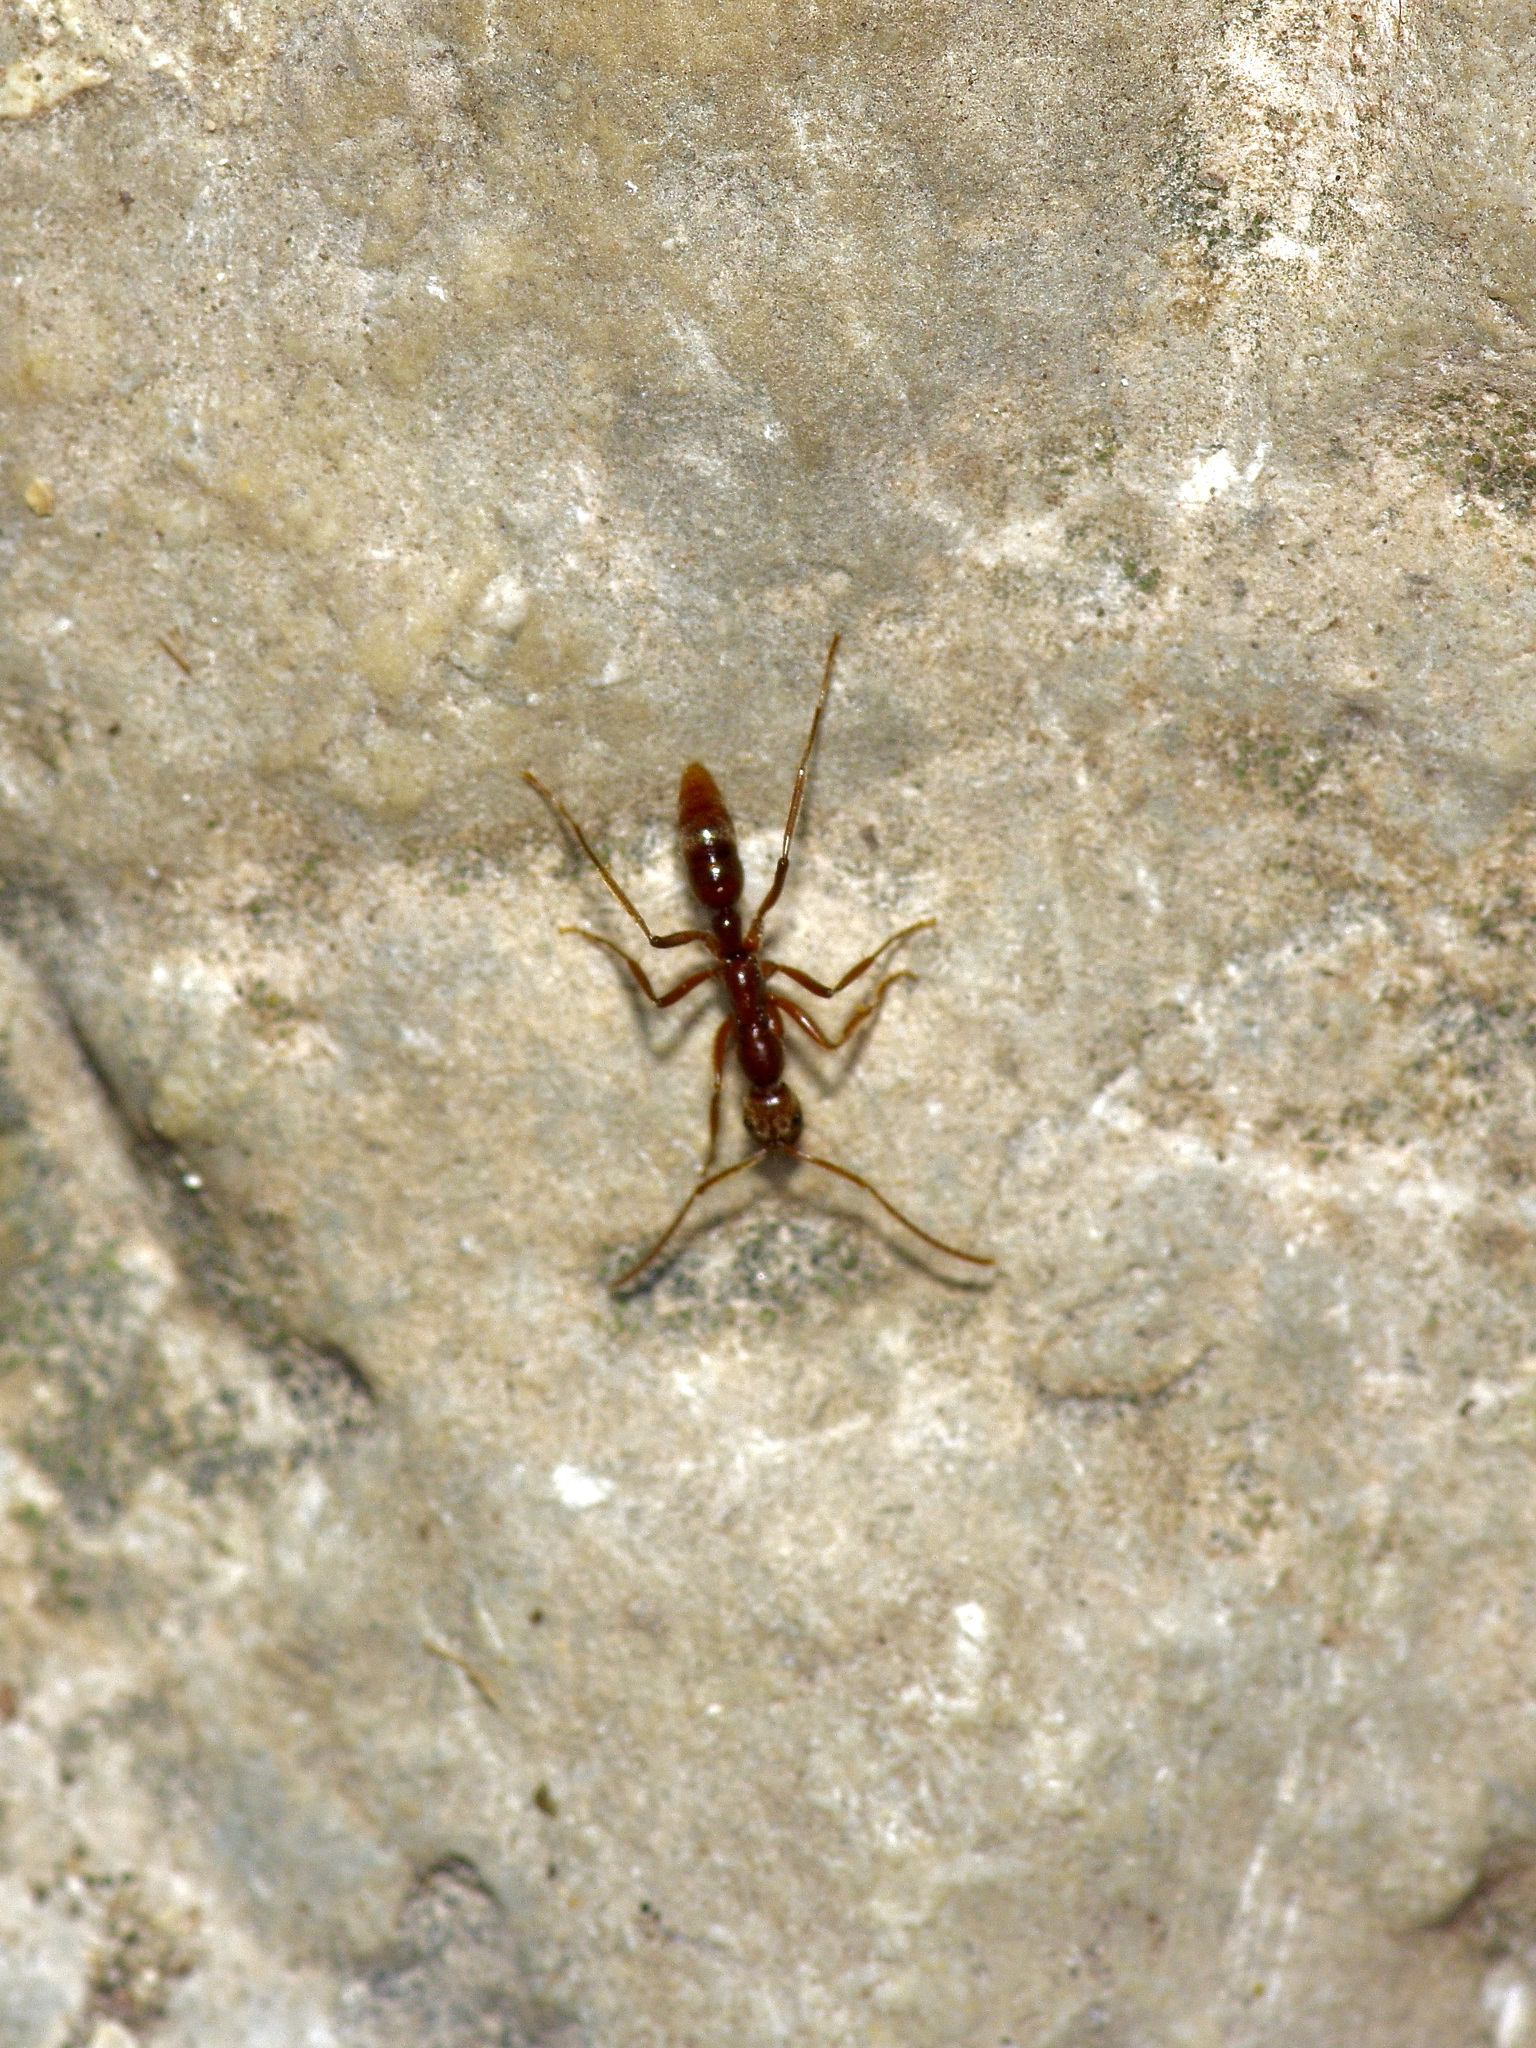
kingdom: Animalia
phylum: Arthropoda
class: Insecta
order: Hymenoptera
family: Formicidae
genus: Leptogenys
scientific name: Leptogenys elongata
